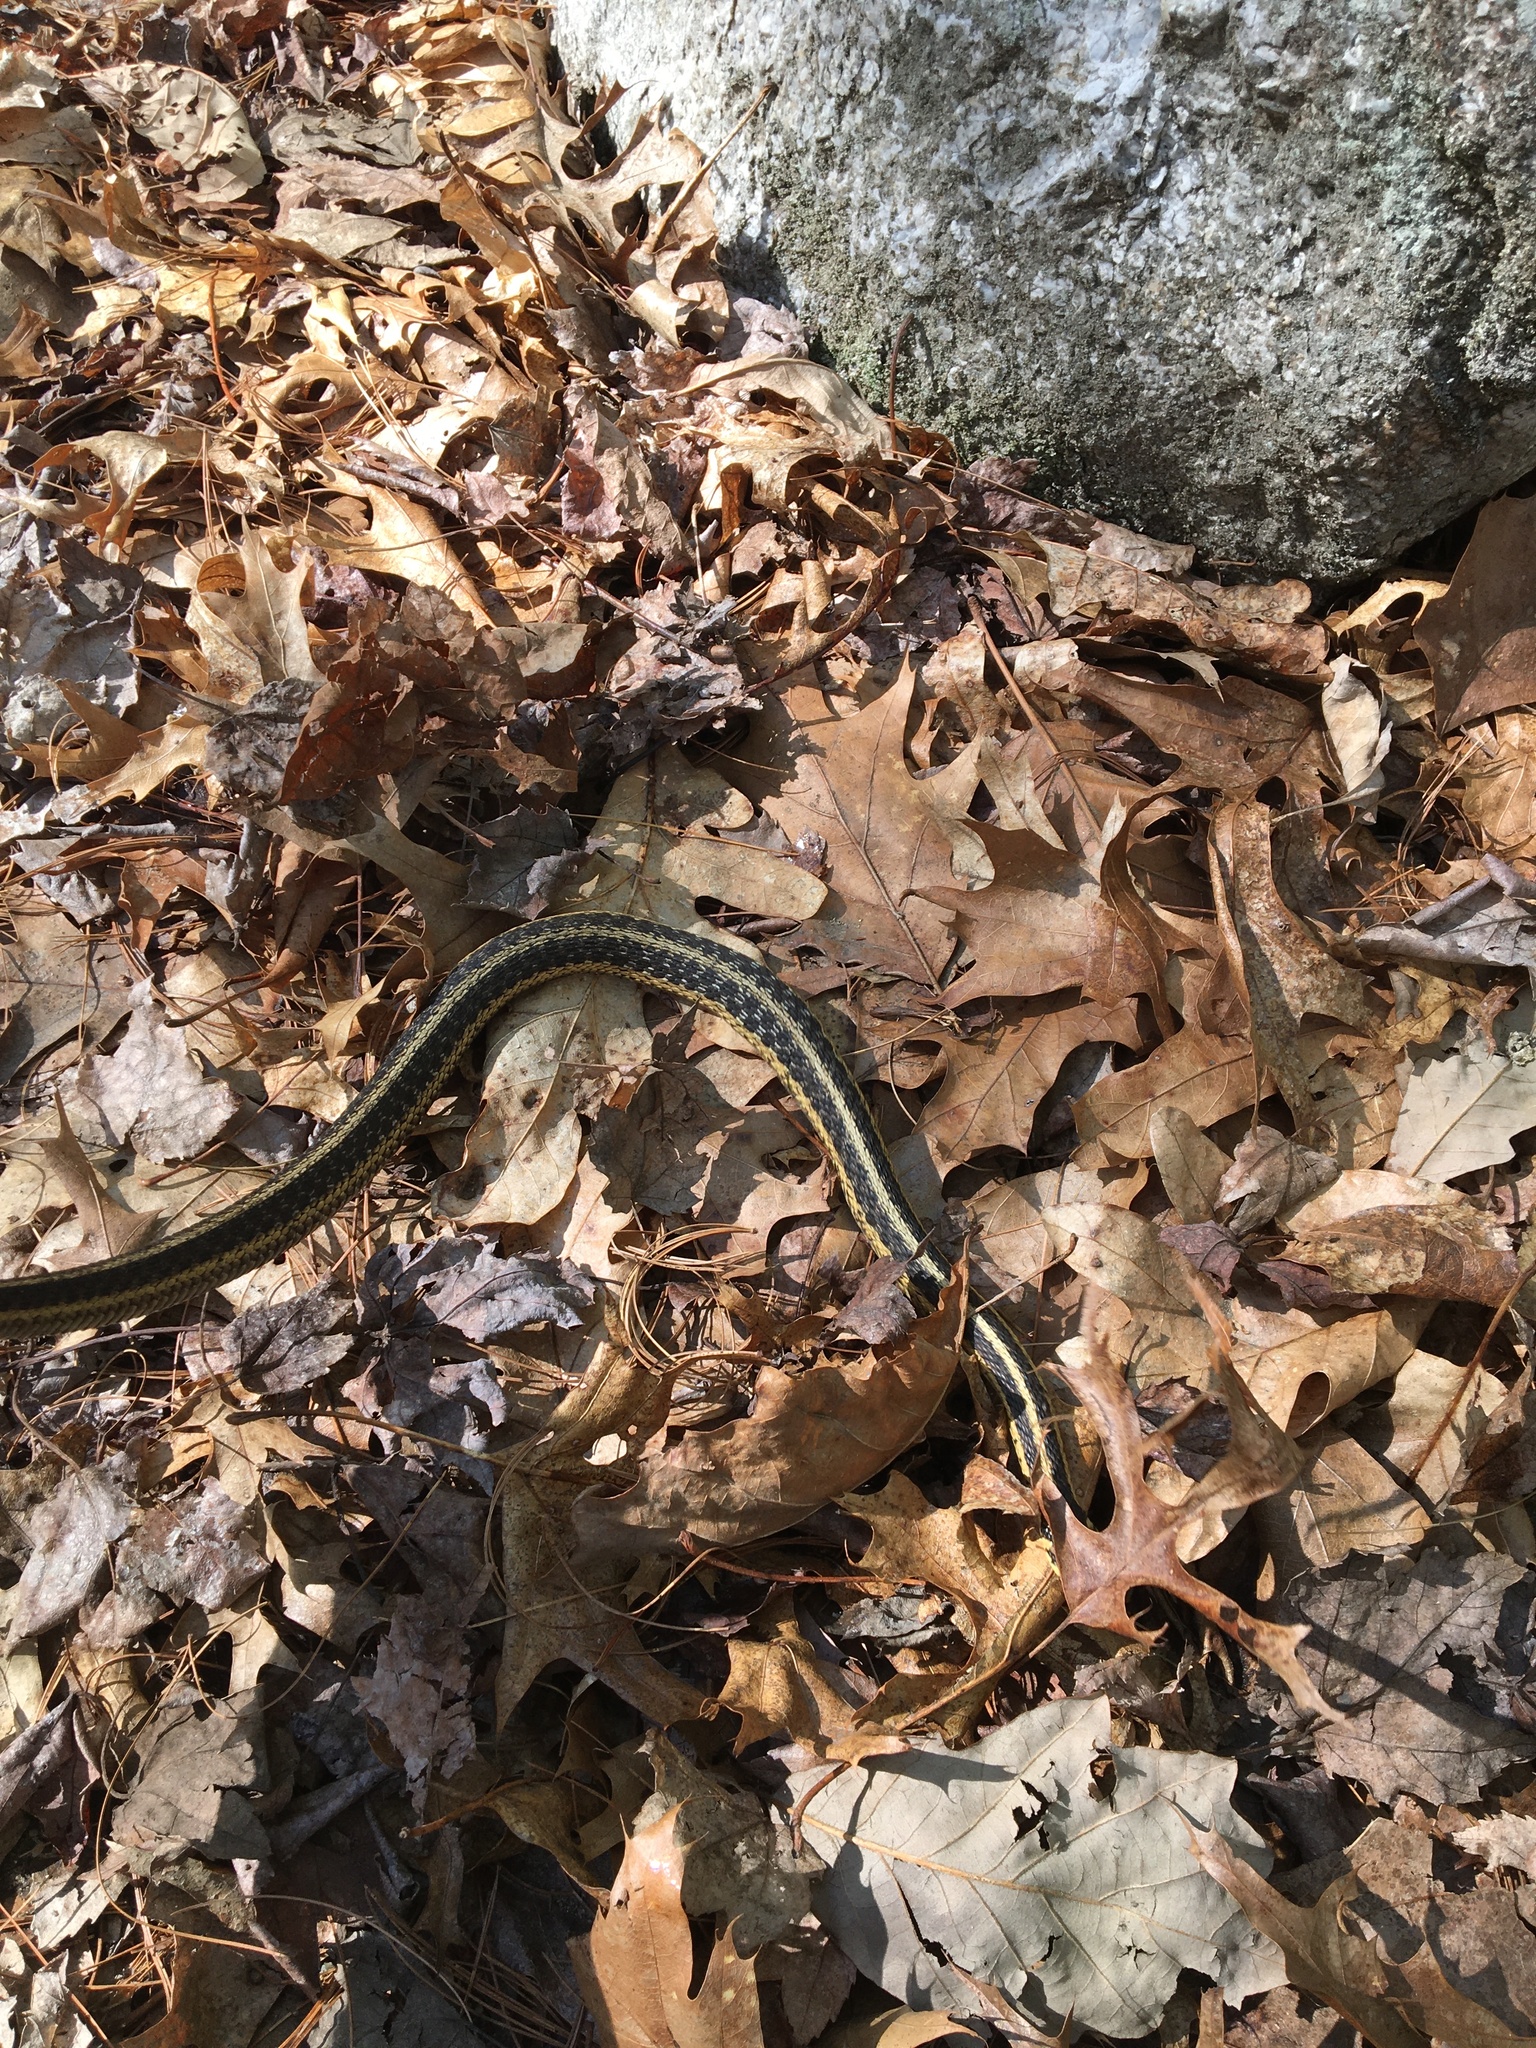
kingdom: Animalia
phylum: Chordata
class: Squamata
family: Colubridae
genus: Thamnophis
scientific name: Thamnophis sirtalis
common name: Common garter snake
